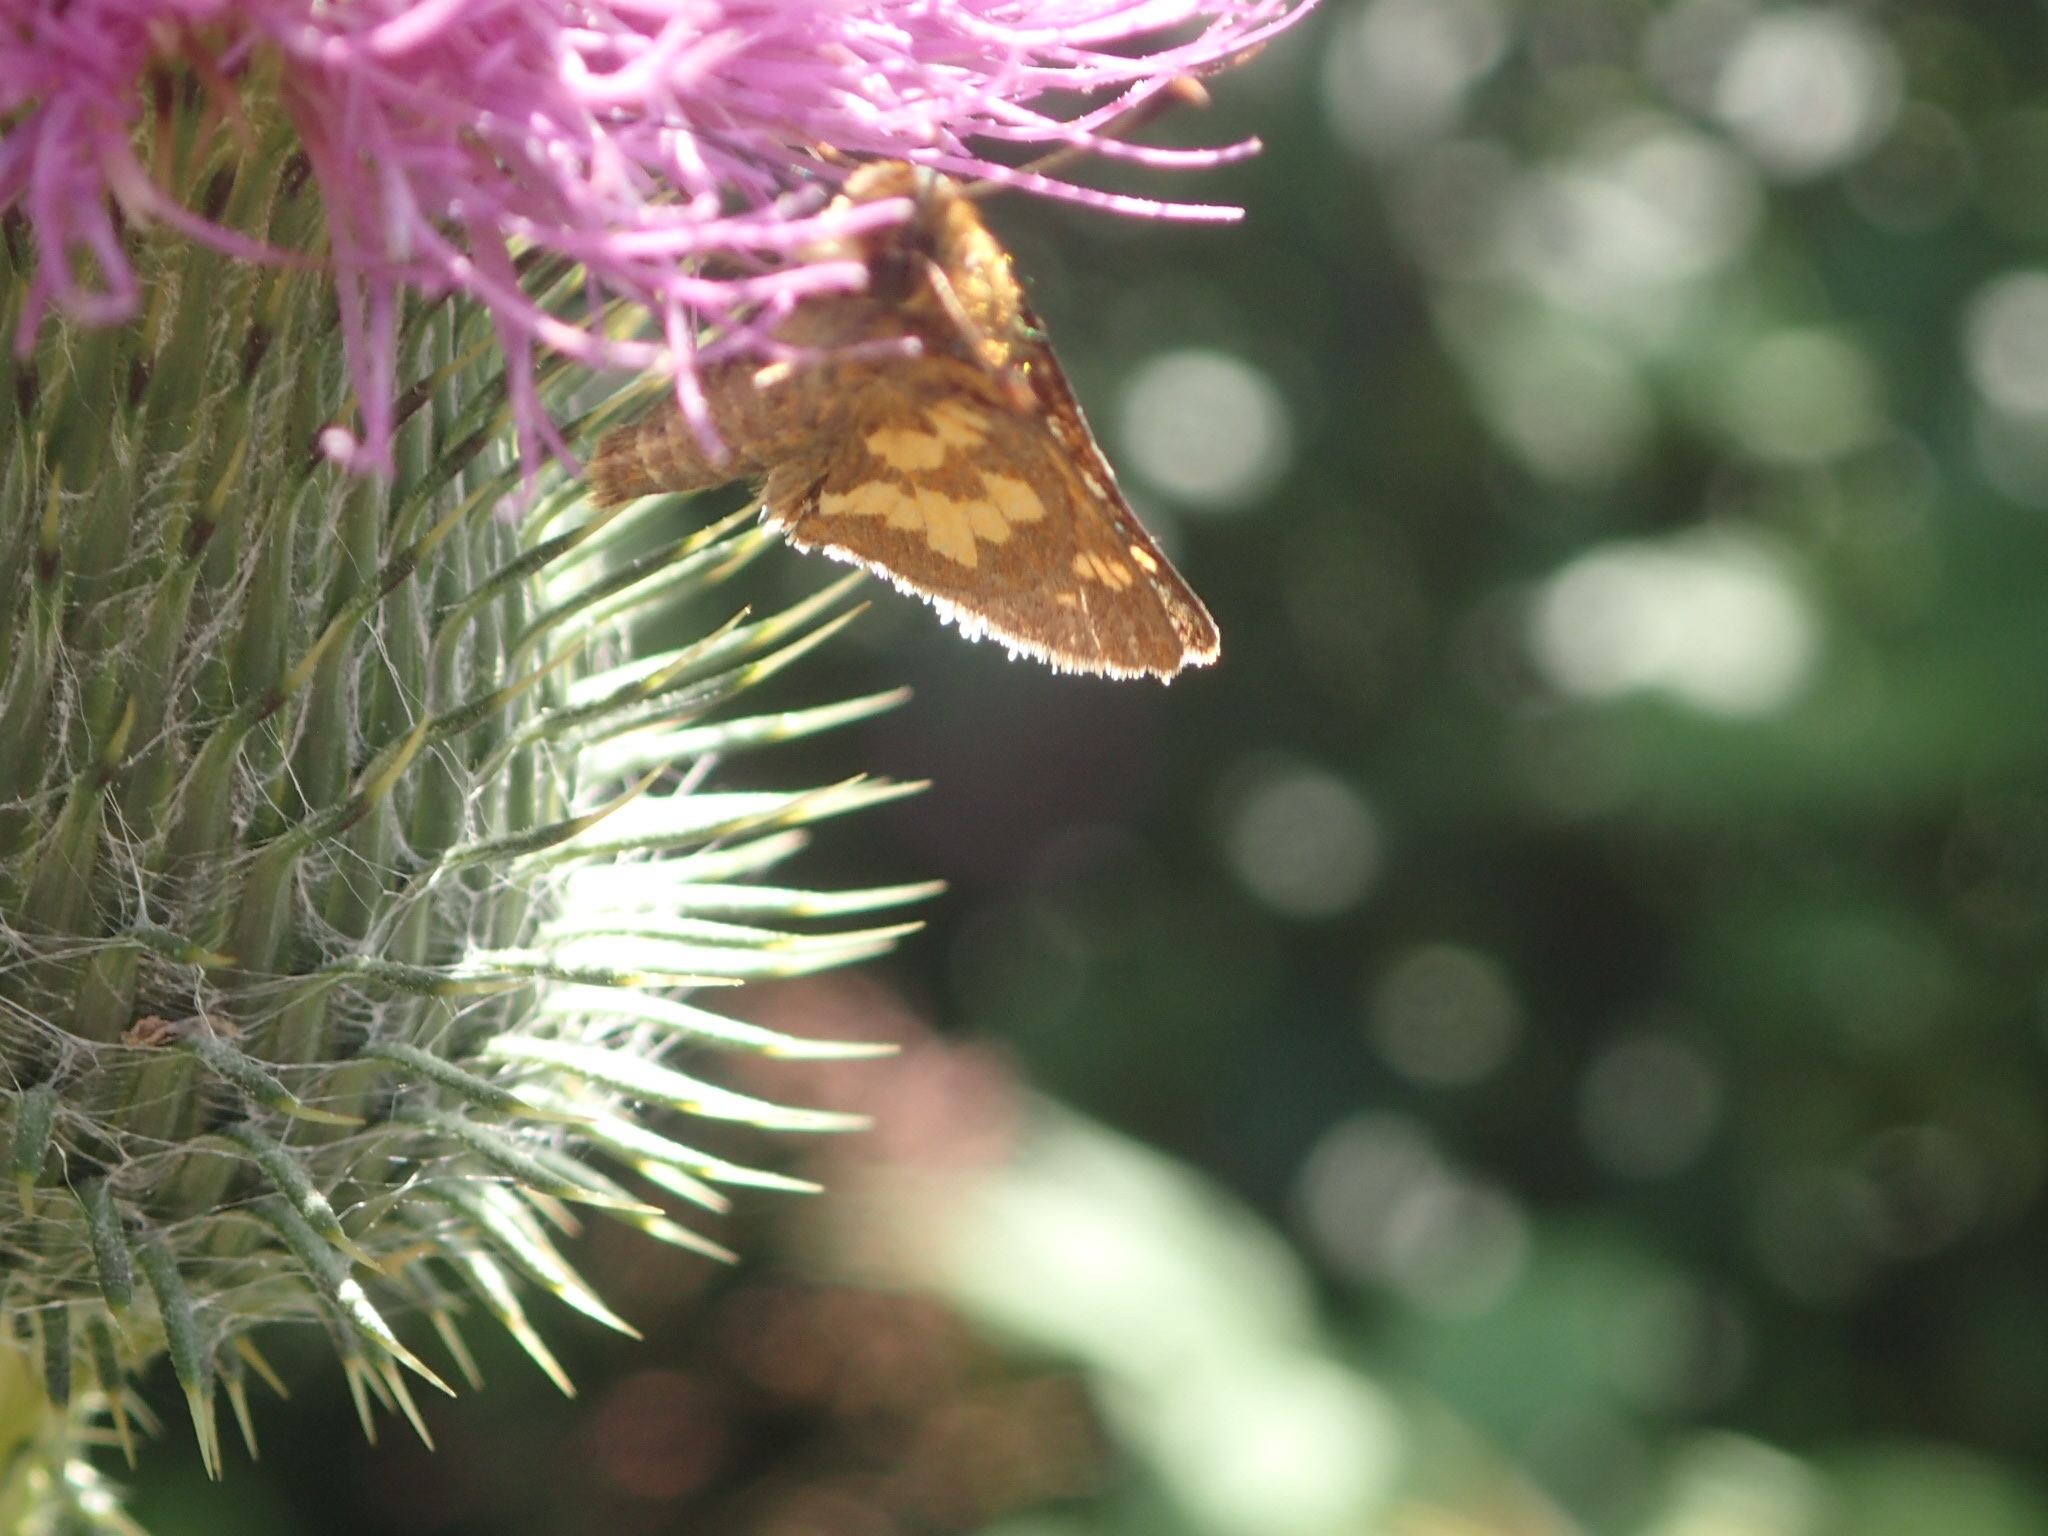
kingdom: Animalia
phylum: Arthropoda
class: Insecta
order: Lepidoptera
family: Hesperiidae
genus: Polites
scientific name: Polites coras
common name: Peck's skipper
